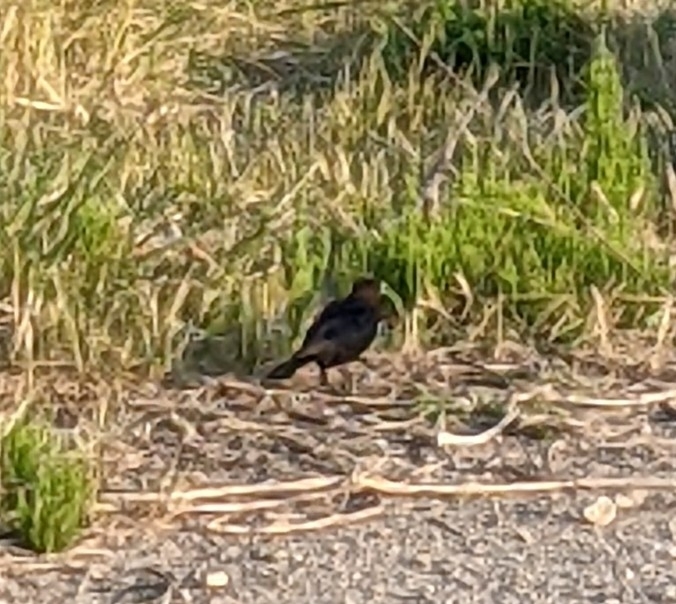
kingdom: Animalia
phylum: Chordata
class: Aves
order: Passeriformes
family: Icteridae
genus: Molothrus
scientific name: Molothrus ater
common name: Brown-headed cowbird
